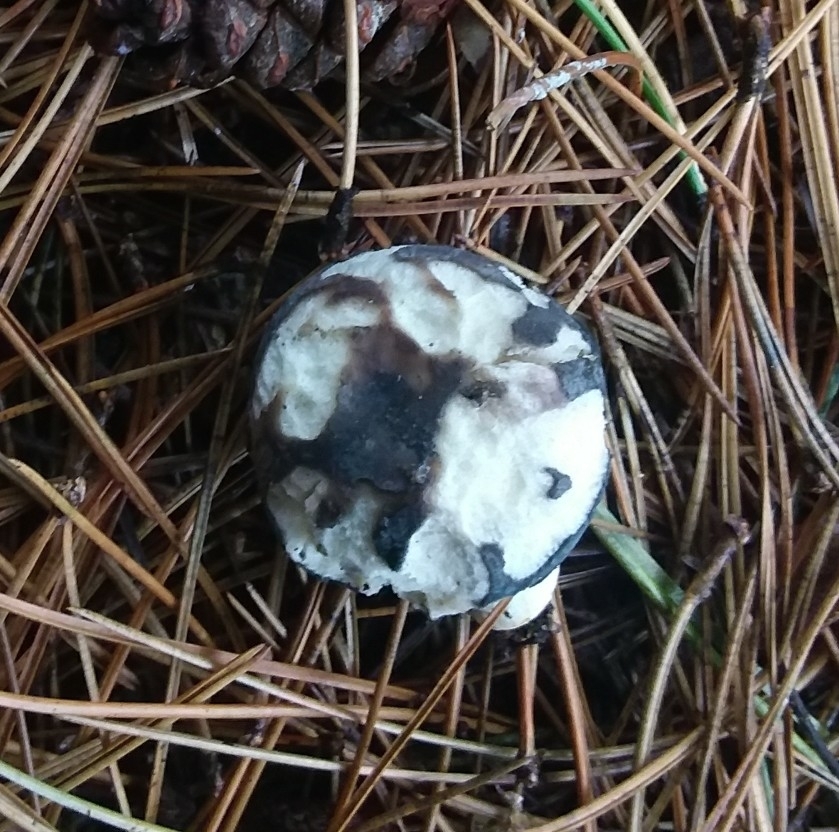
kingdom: Fungi
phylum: Basidiomycota
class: Agaricomycetes
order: Russulales
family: Russulaceae
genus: Russula
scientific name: Russula cyanoxantha
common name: Charcoal burner
